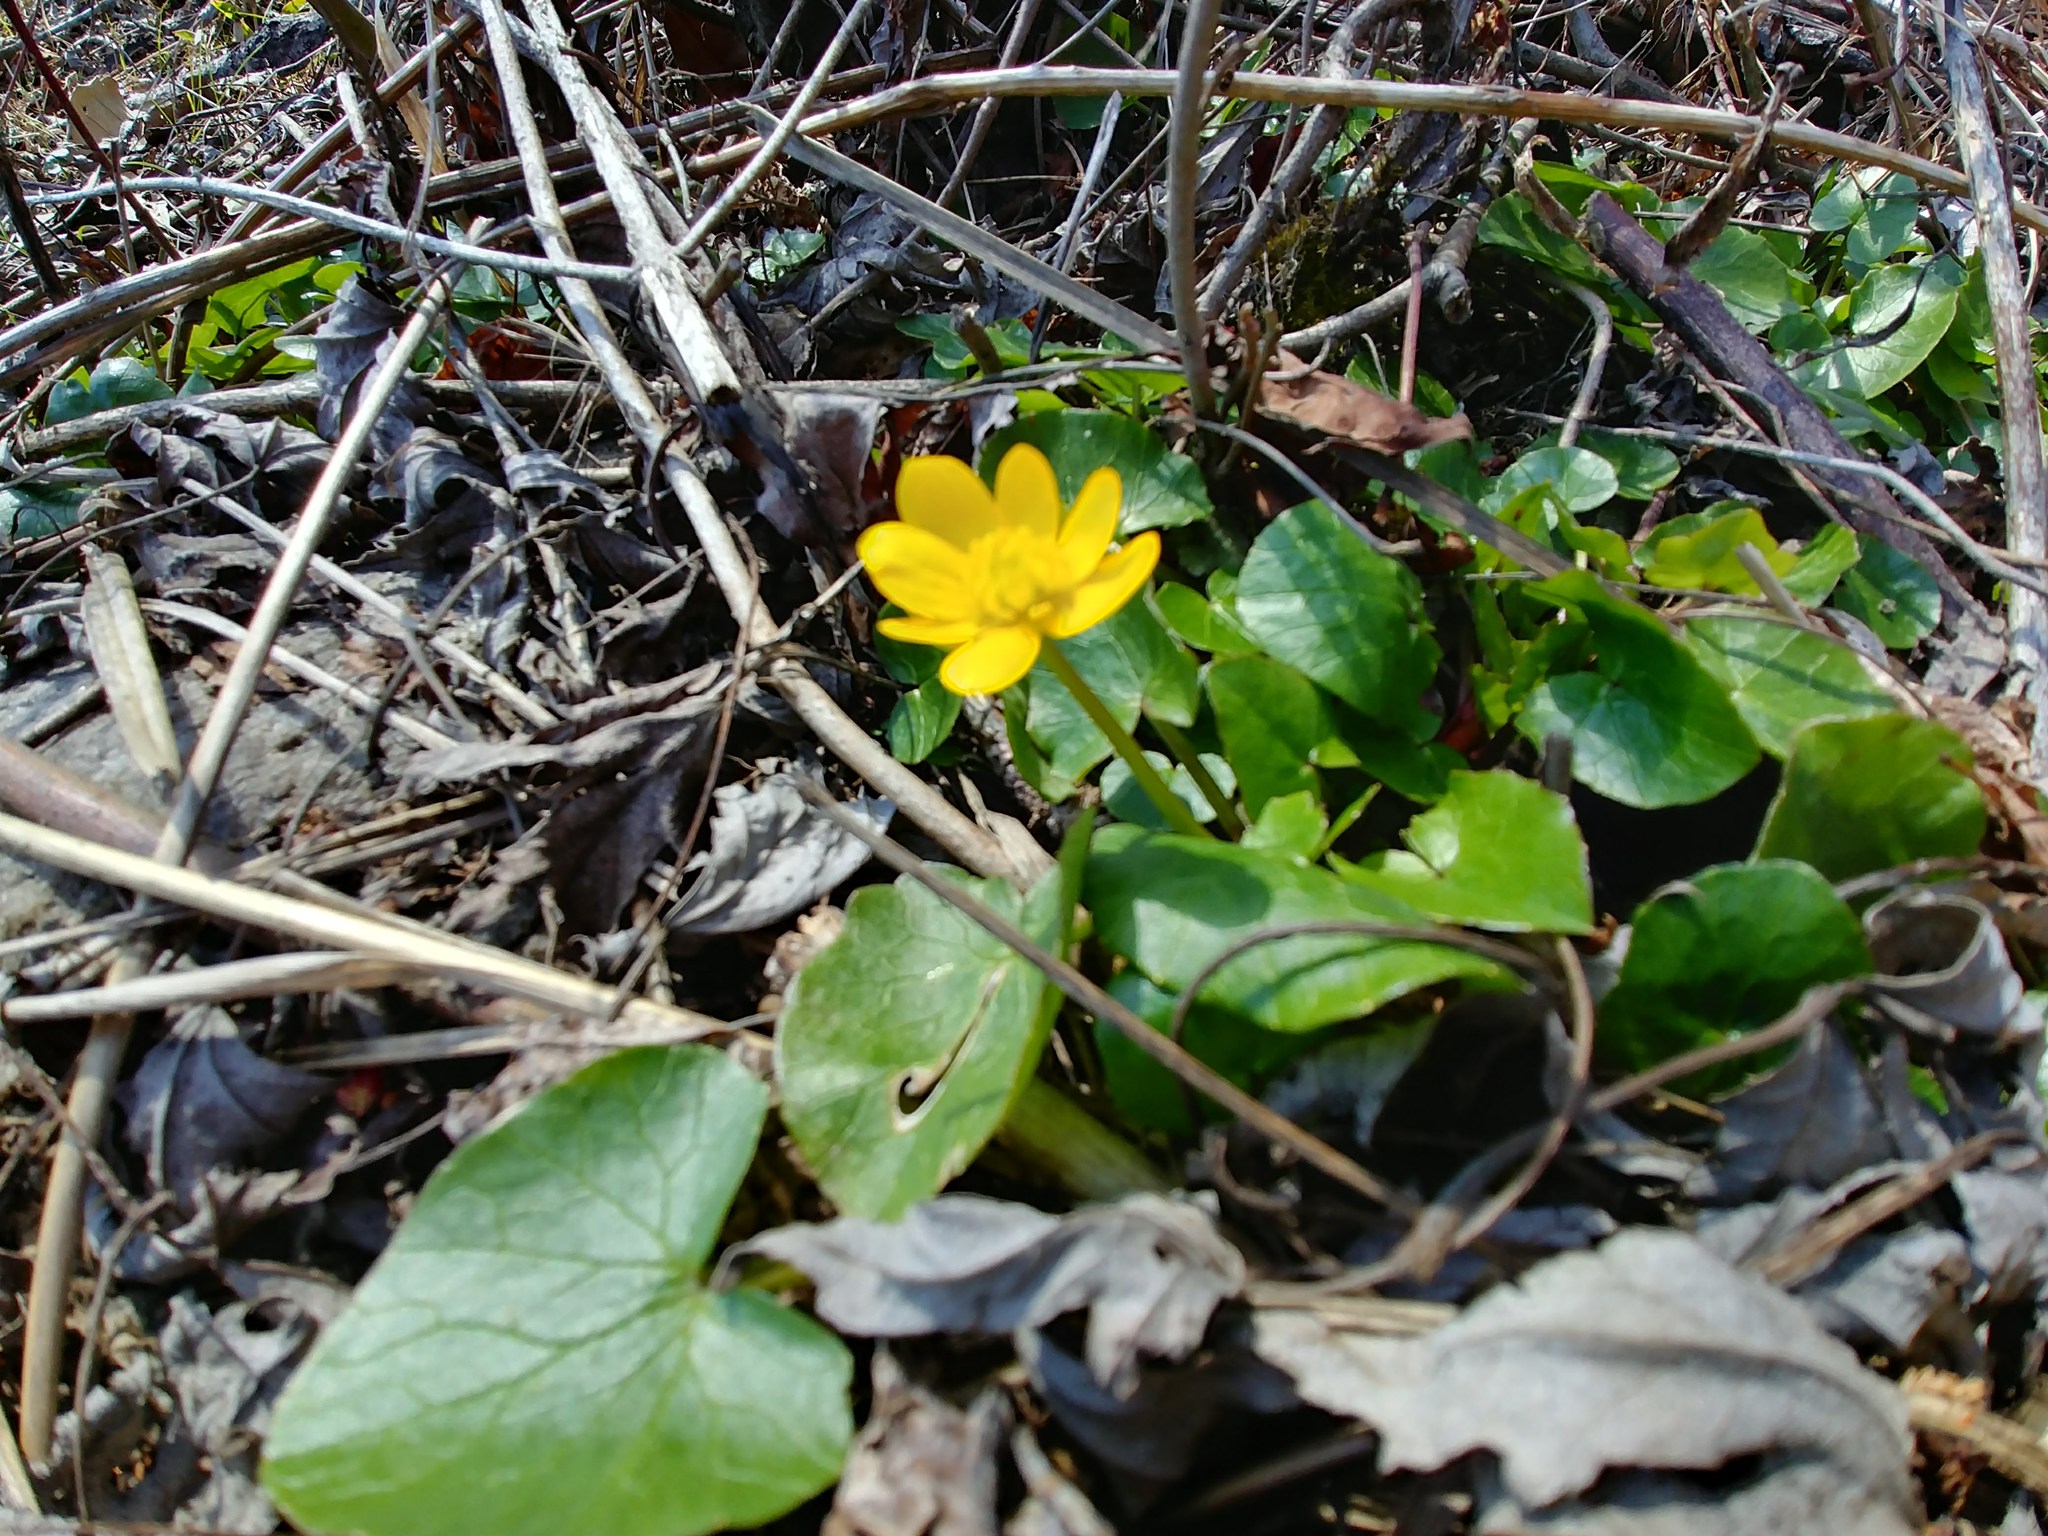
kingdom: Plantae
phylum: Tracheophyta
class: Magnoliopsida
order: Ranunculales
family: Ranunculaceae
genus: Ficaria
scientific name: Ficaria verna
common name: Lesser celandine
